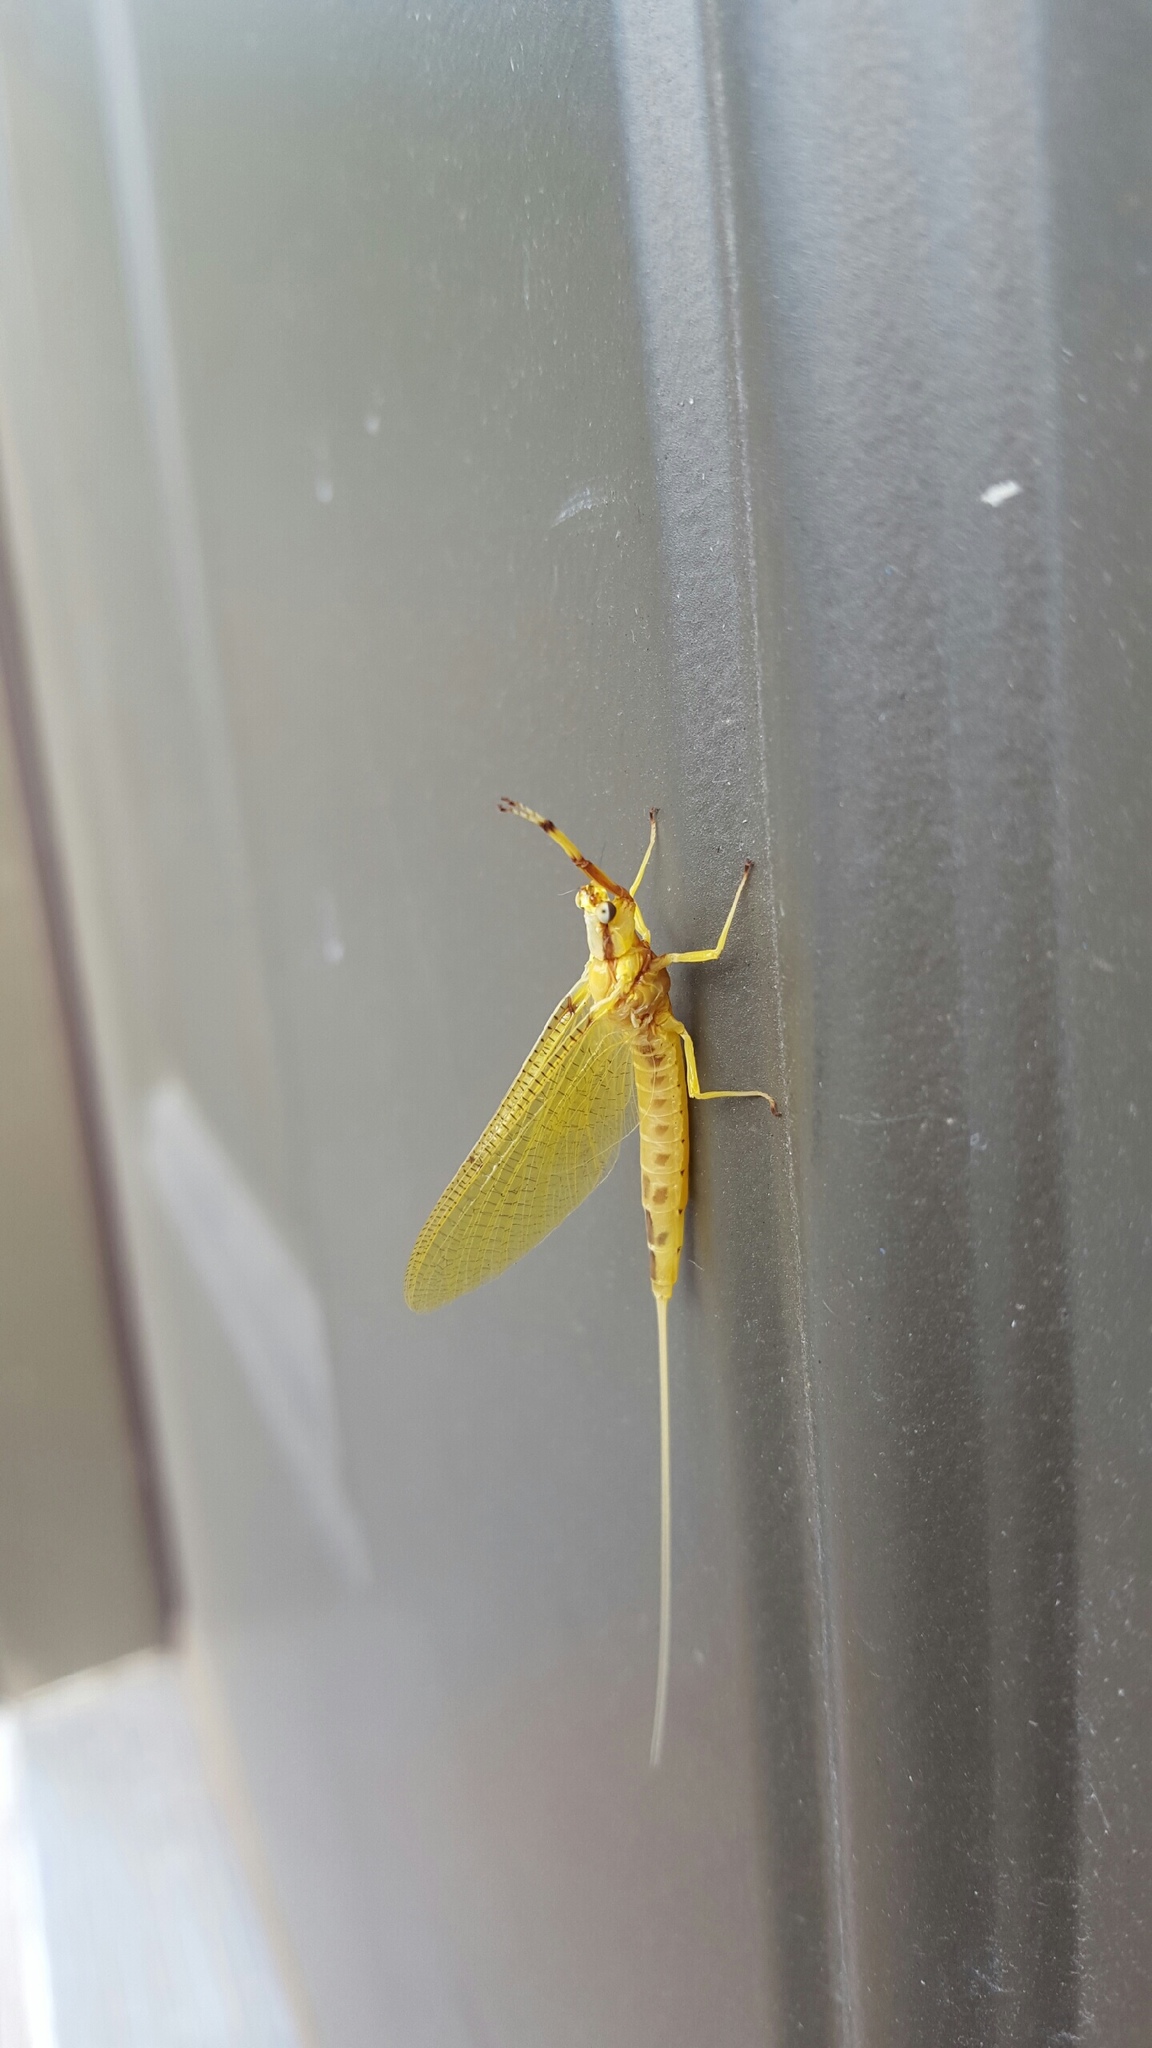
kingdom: Animalia
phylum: Arthropoda
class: Insecta
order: Ephemeroptera
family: Ephemeridae
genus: Hexagenia
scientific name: Hexagenia limbata
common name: Giant mayfly
